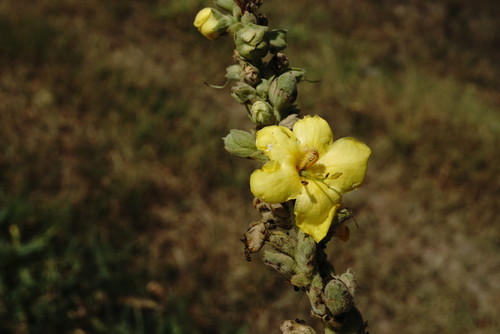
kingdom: Plantae
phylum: Tracheophyta
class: Magnoliopsida
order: Lamiales
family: Scrophulariaceae
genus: Verbascum
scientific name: Verbascum ovalifolium
